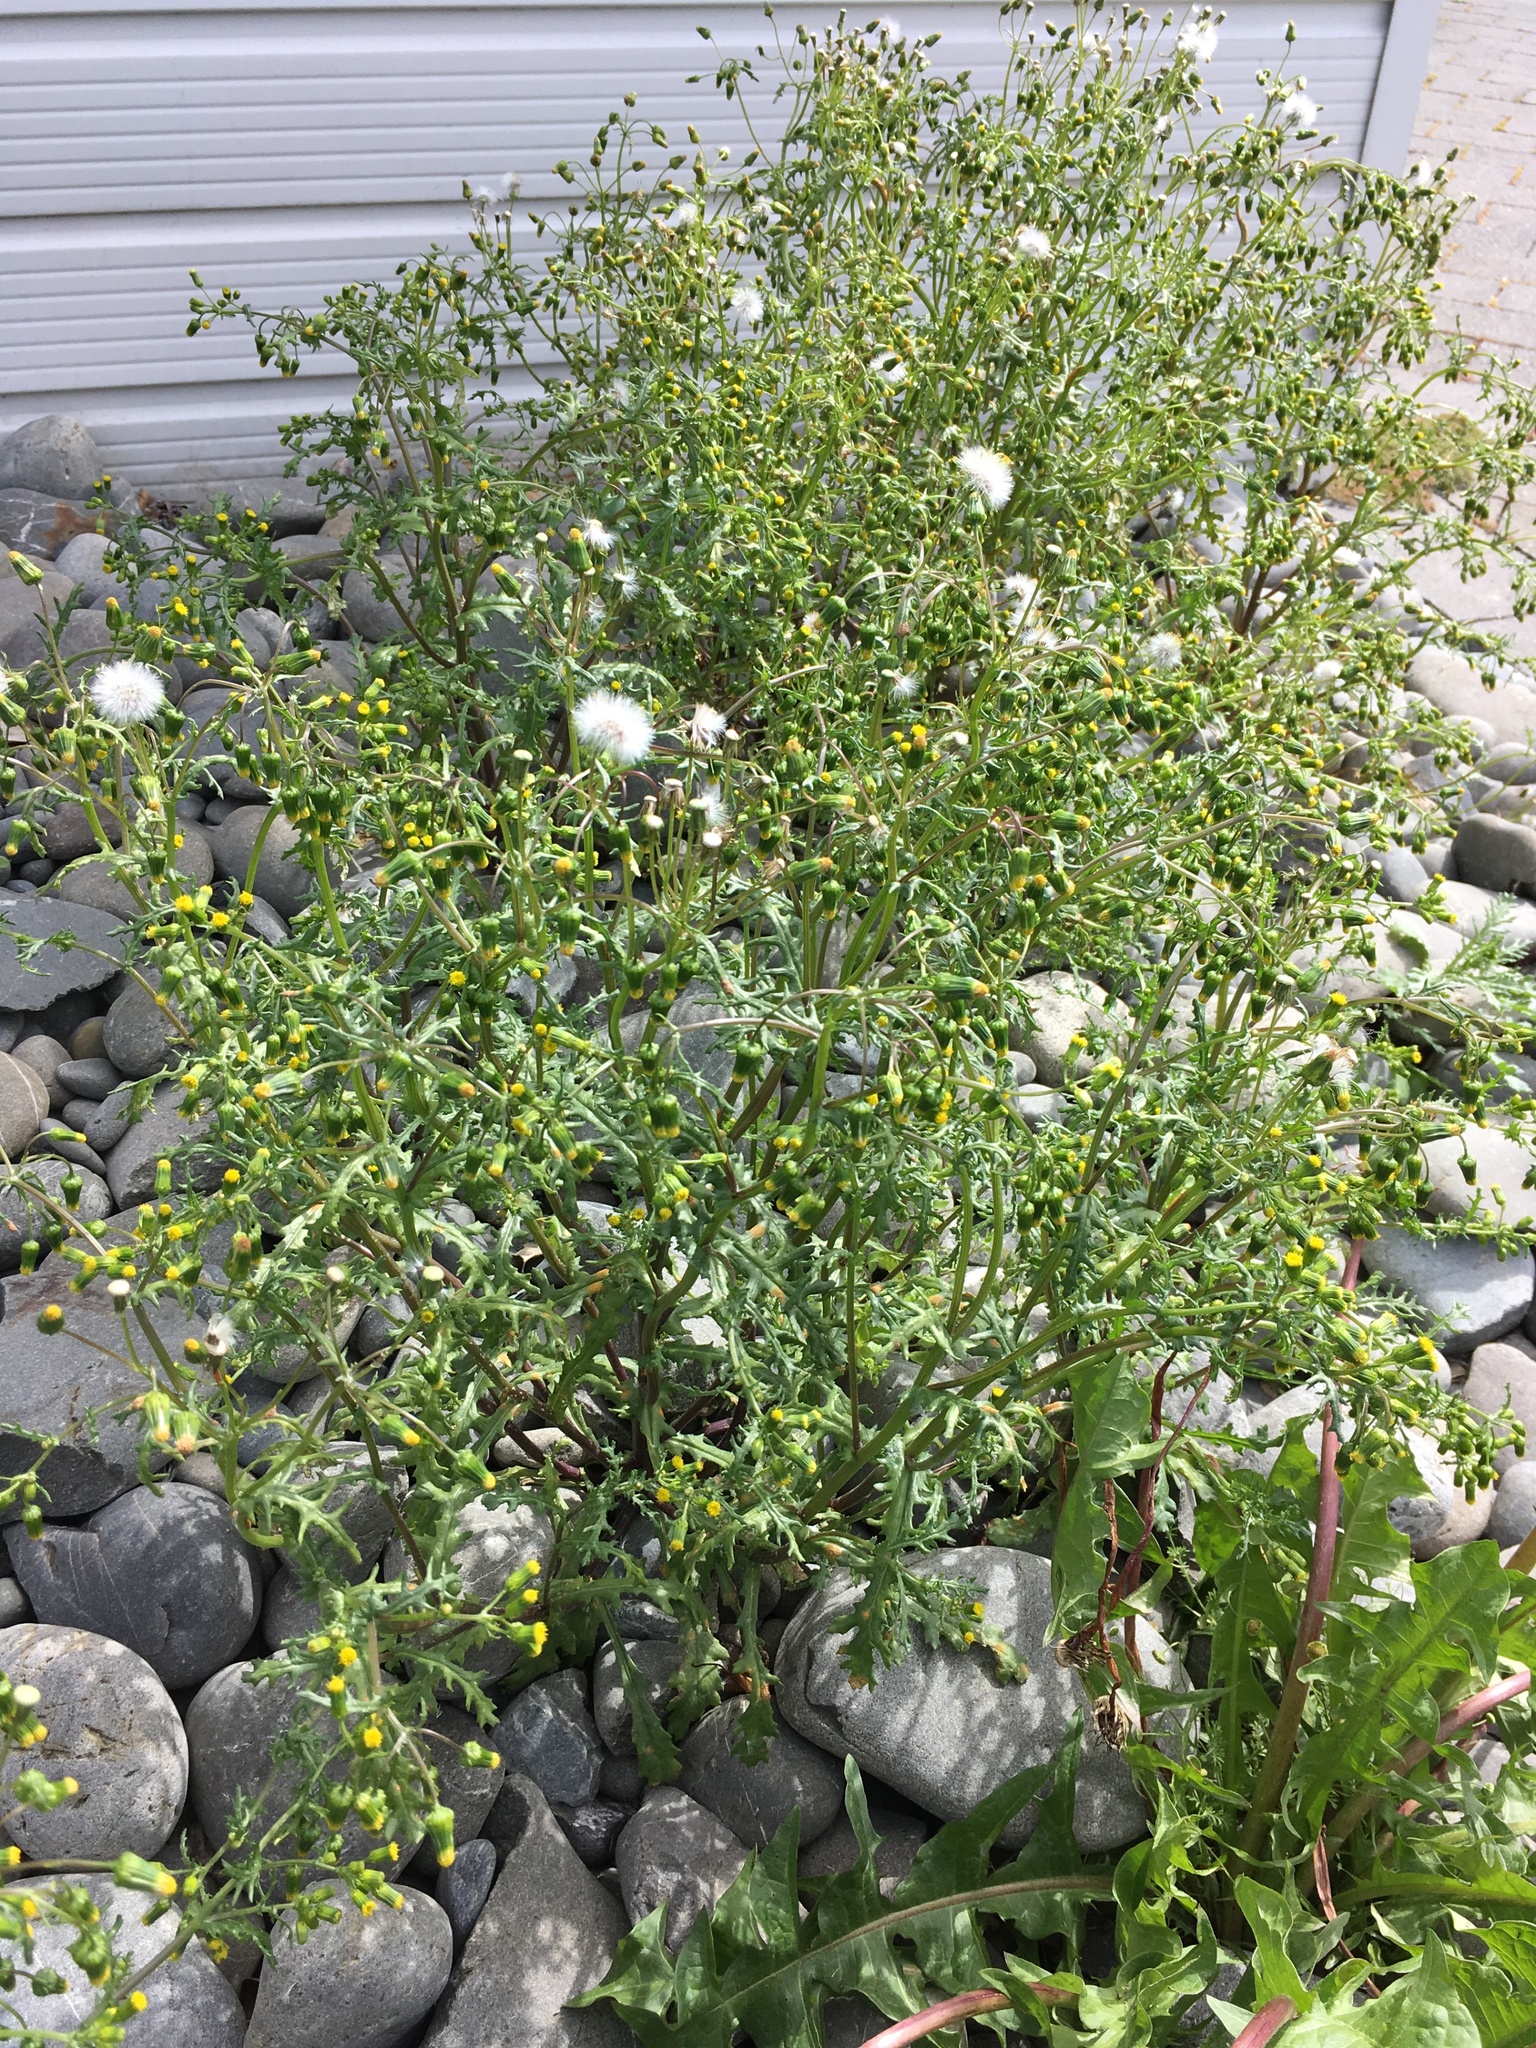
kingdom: Plantae
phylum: Tracheophyta
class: Magnoliopsida
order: Asterales
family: Asteraceae
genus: Senecio
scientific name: Senecio vulgaris
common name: Old-man-in-the-spring
